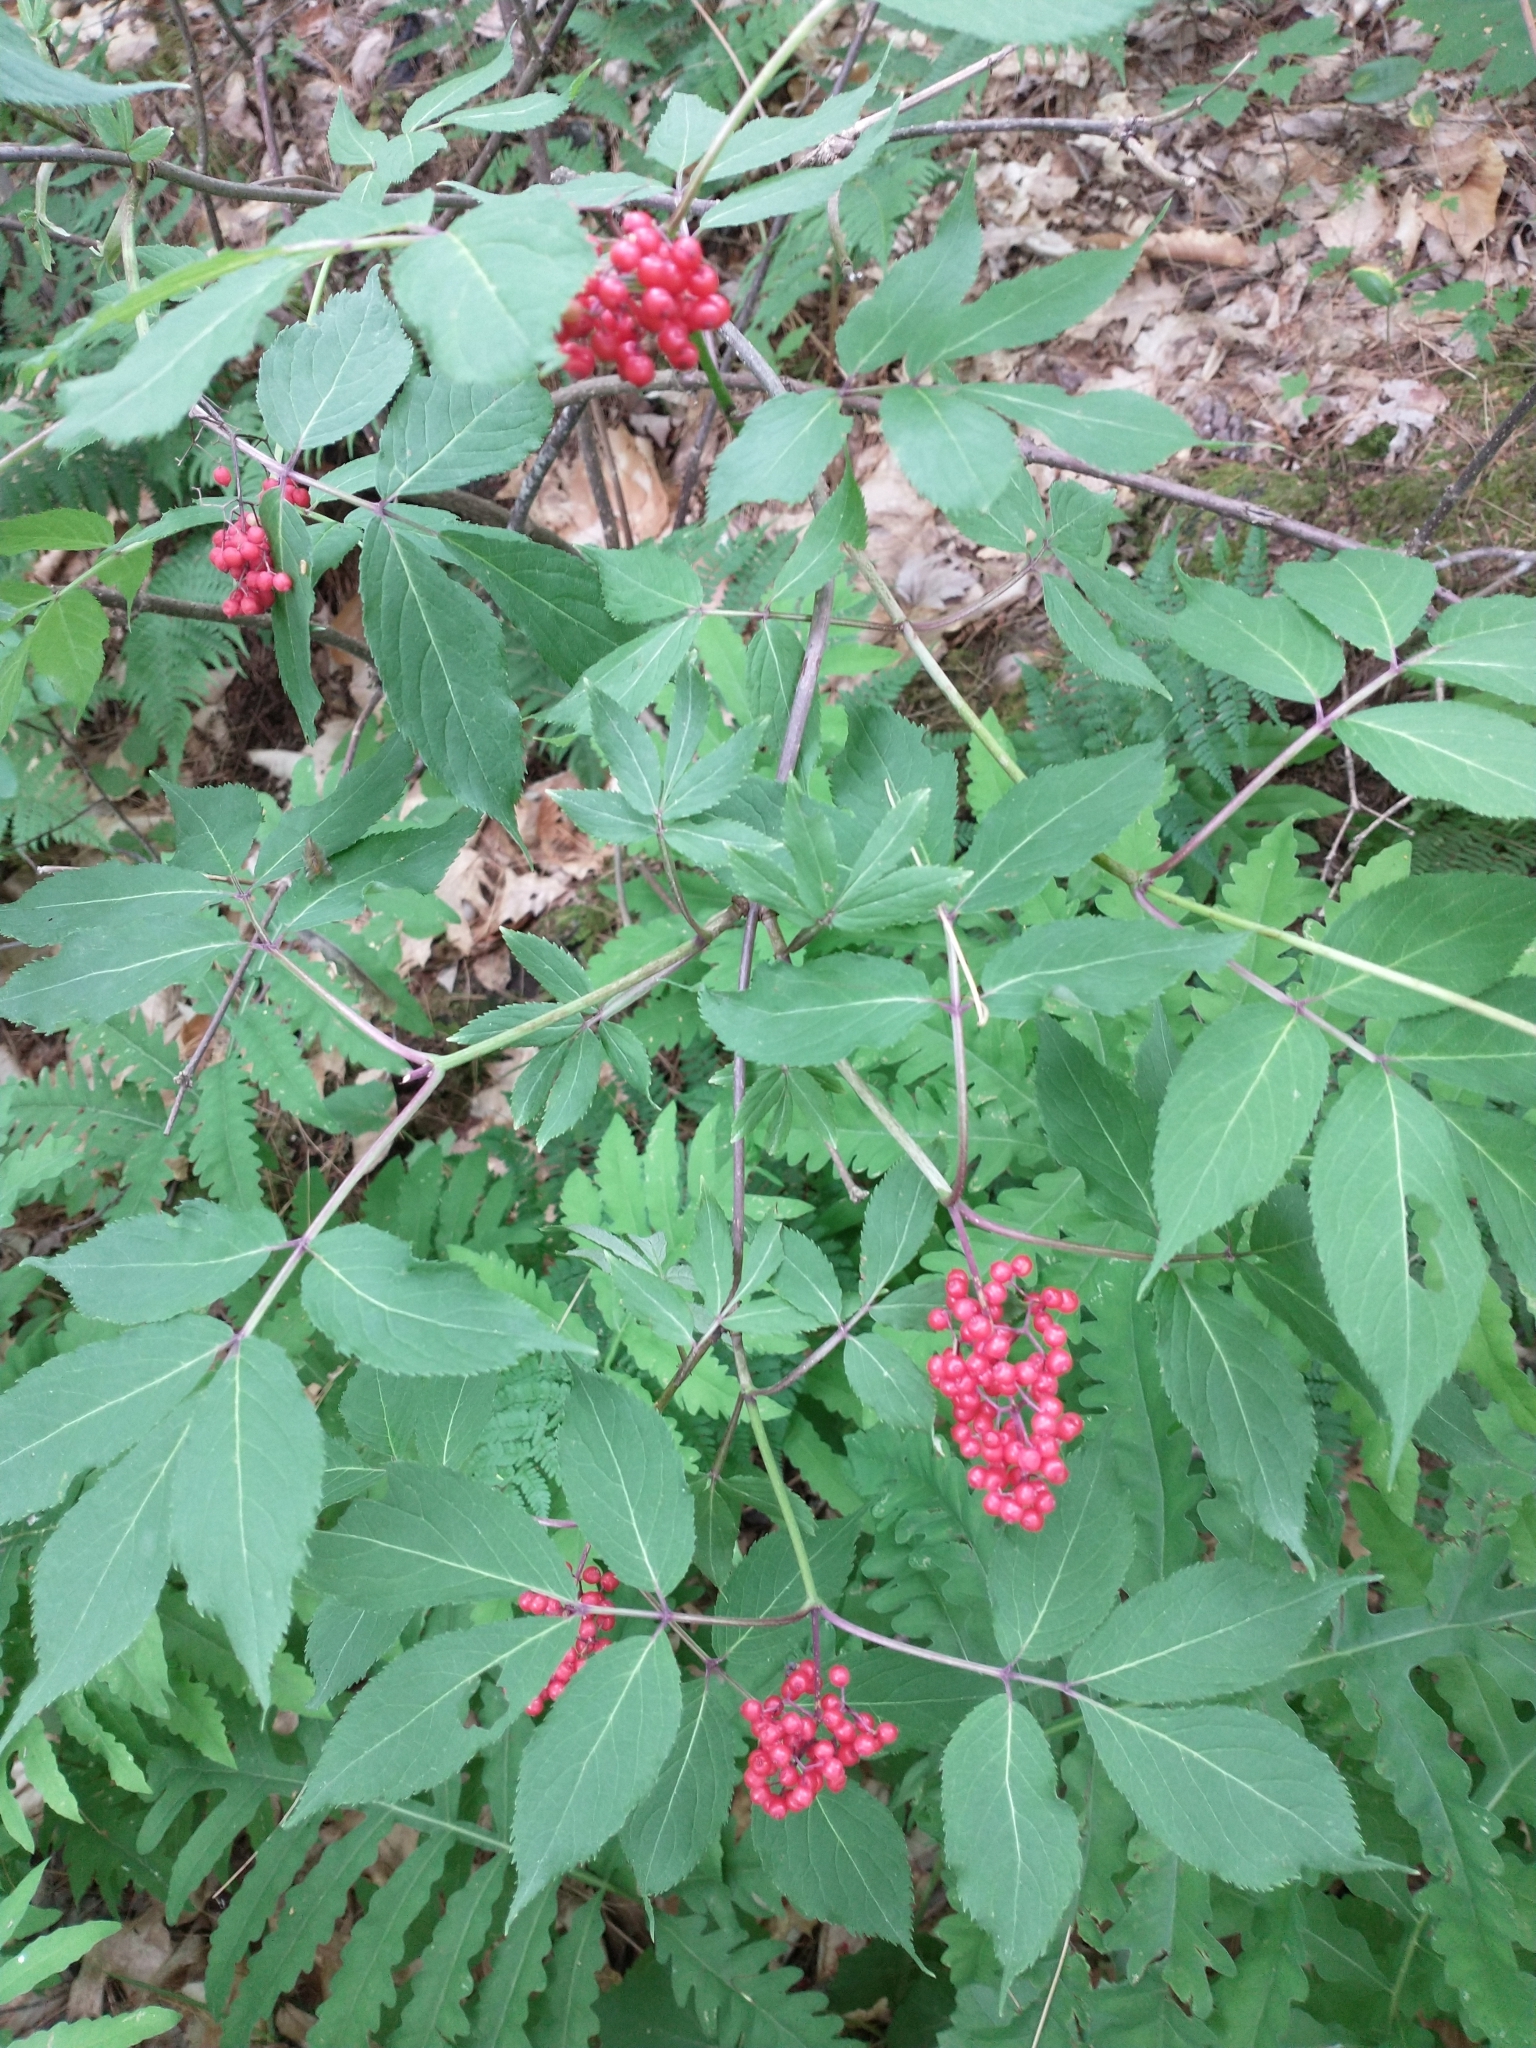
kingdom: Plantae
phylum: Tracheophyta
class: Magnoliopsida
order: Dipsacales
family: Viburnaceae
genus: Sambucus
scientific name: Sambucus racemosa
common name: Red-berried elder
